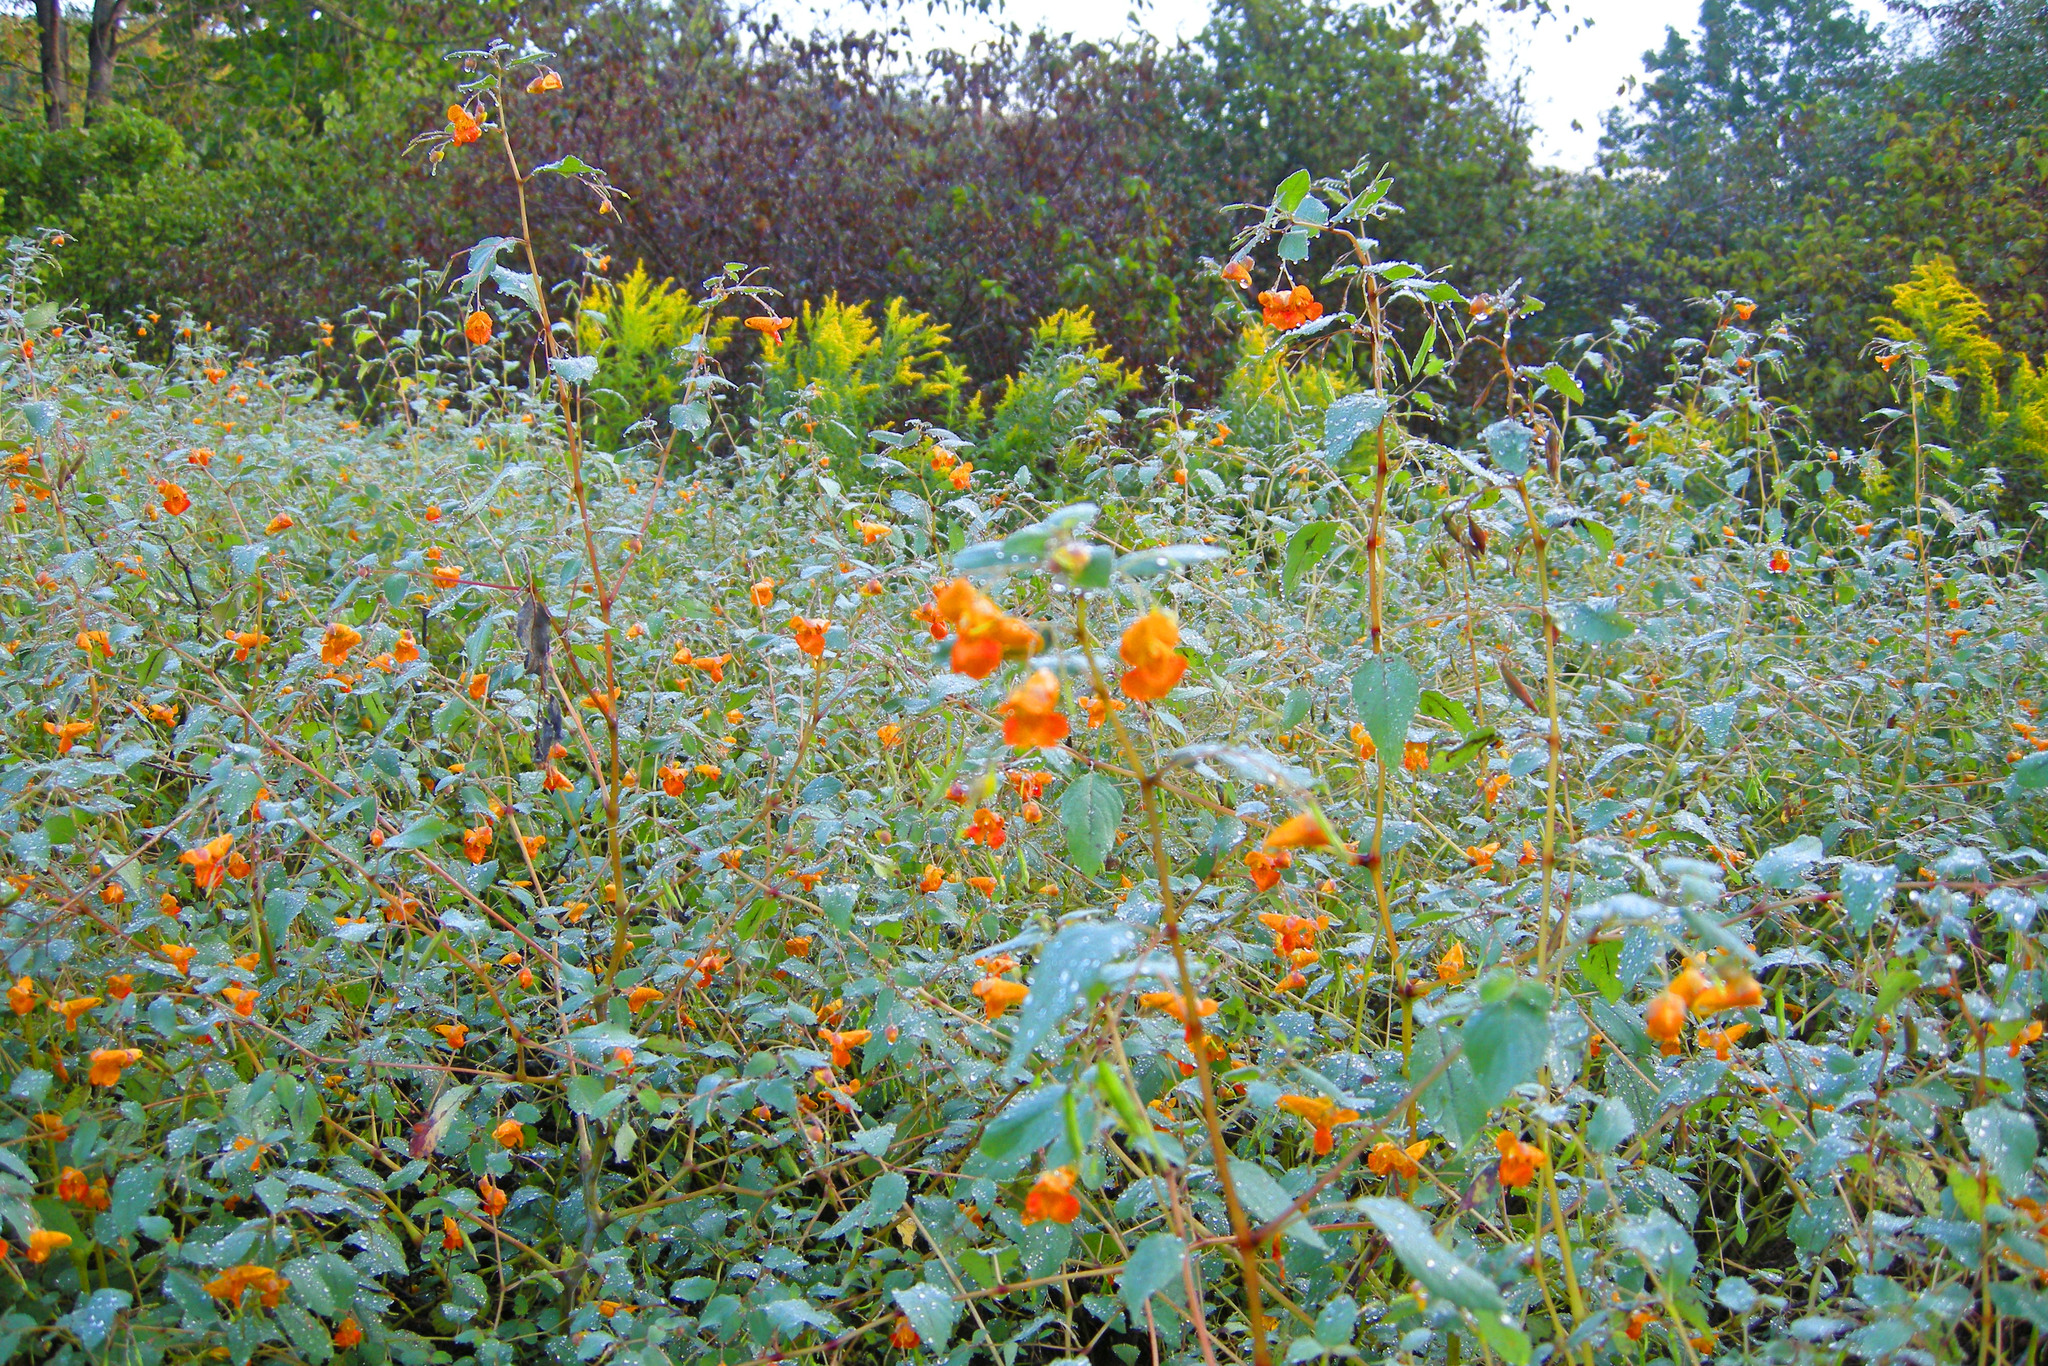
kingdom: Plantae
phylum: Tracheophyta
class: Magnoliopsida
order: Ericales
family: Balsaminaceae
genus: Impatiens
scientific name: Impatiens capensis
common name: Orange balsam
